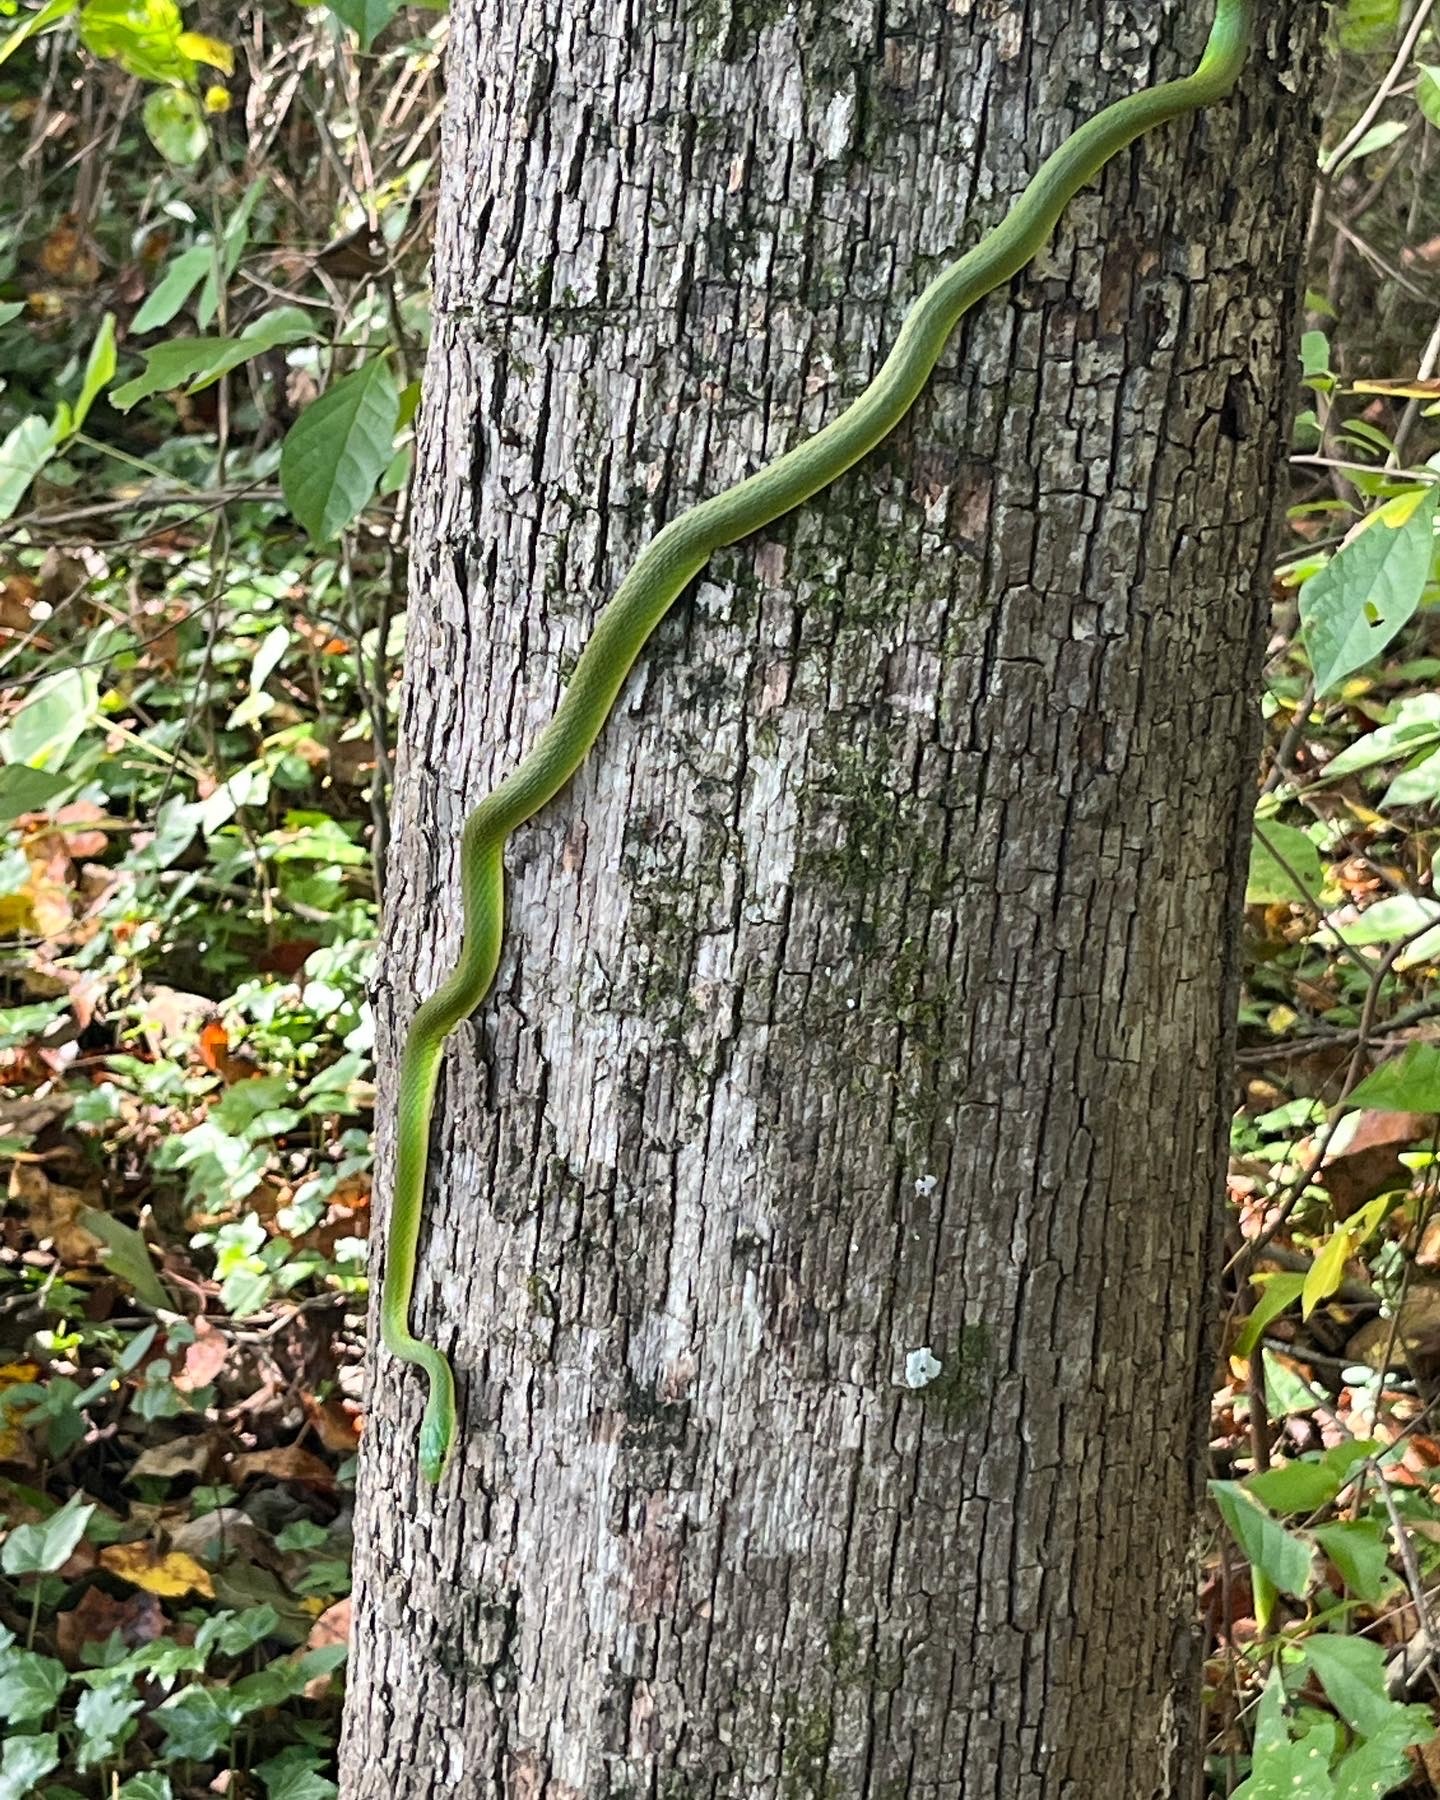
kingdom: Animalia
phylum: Chordata
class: Squamata
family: Colubridae
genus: Opheodrys
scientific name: Opheodrys aestivus
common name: Rough greensnake
